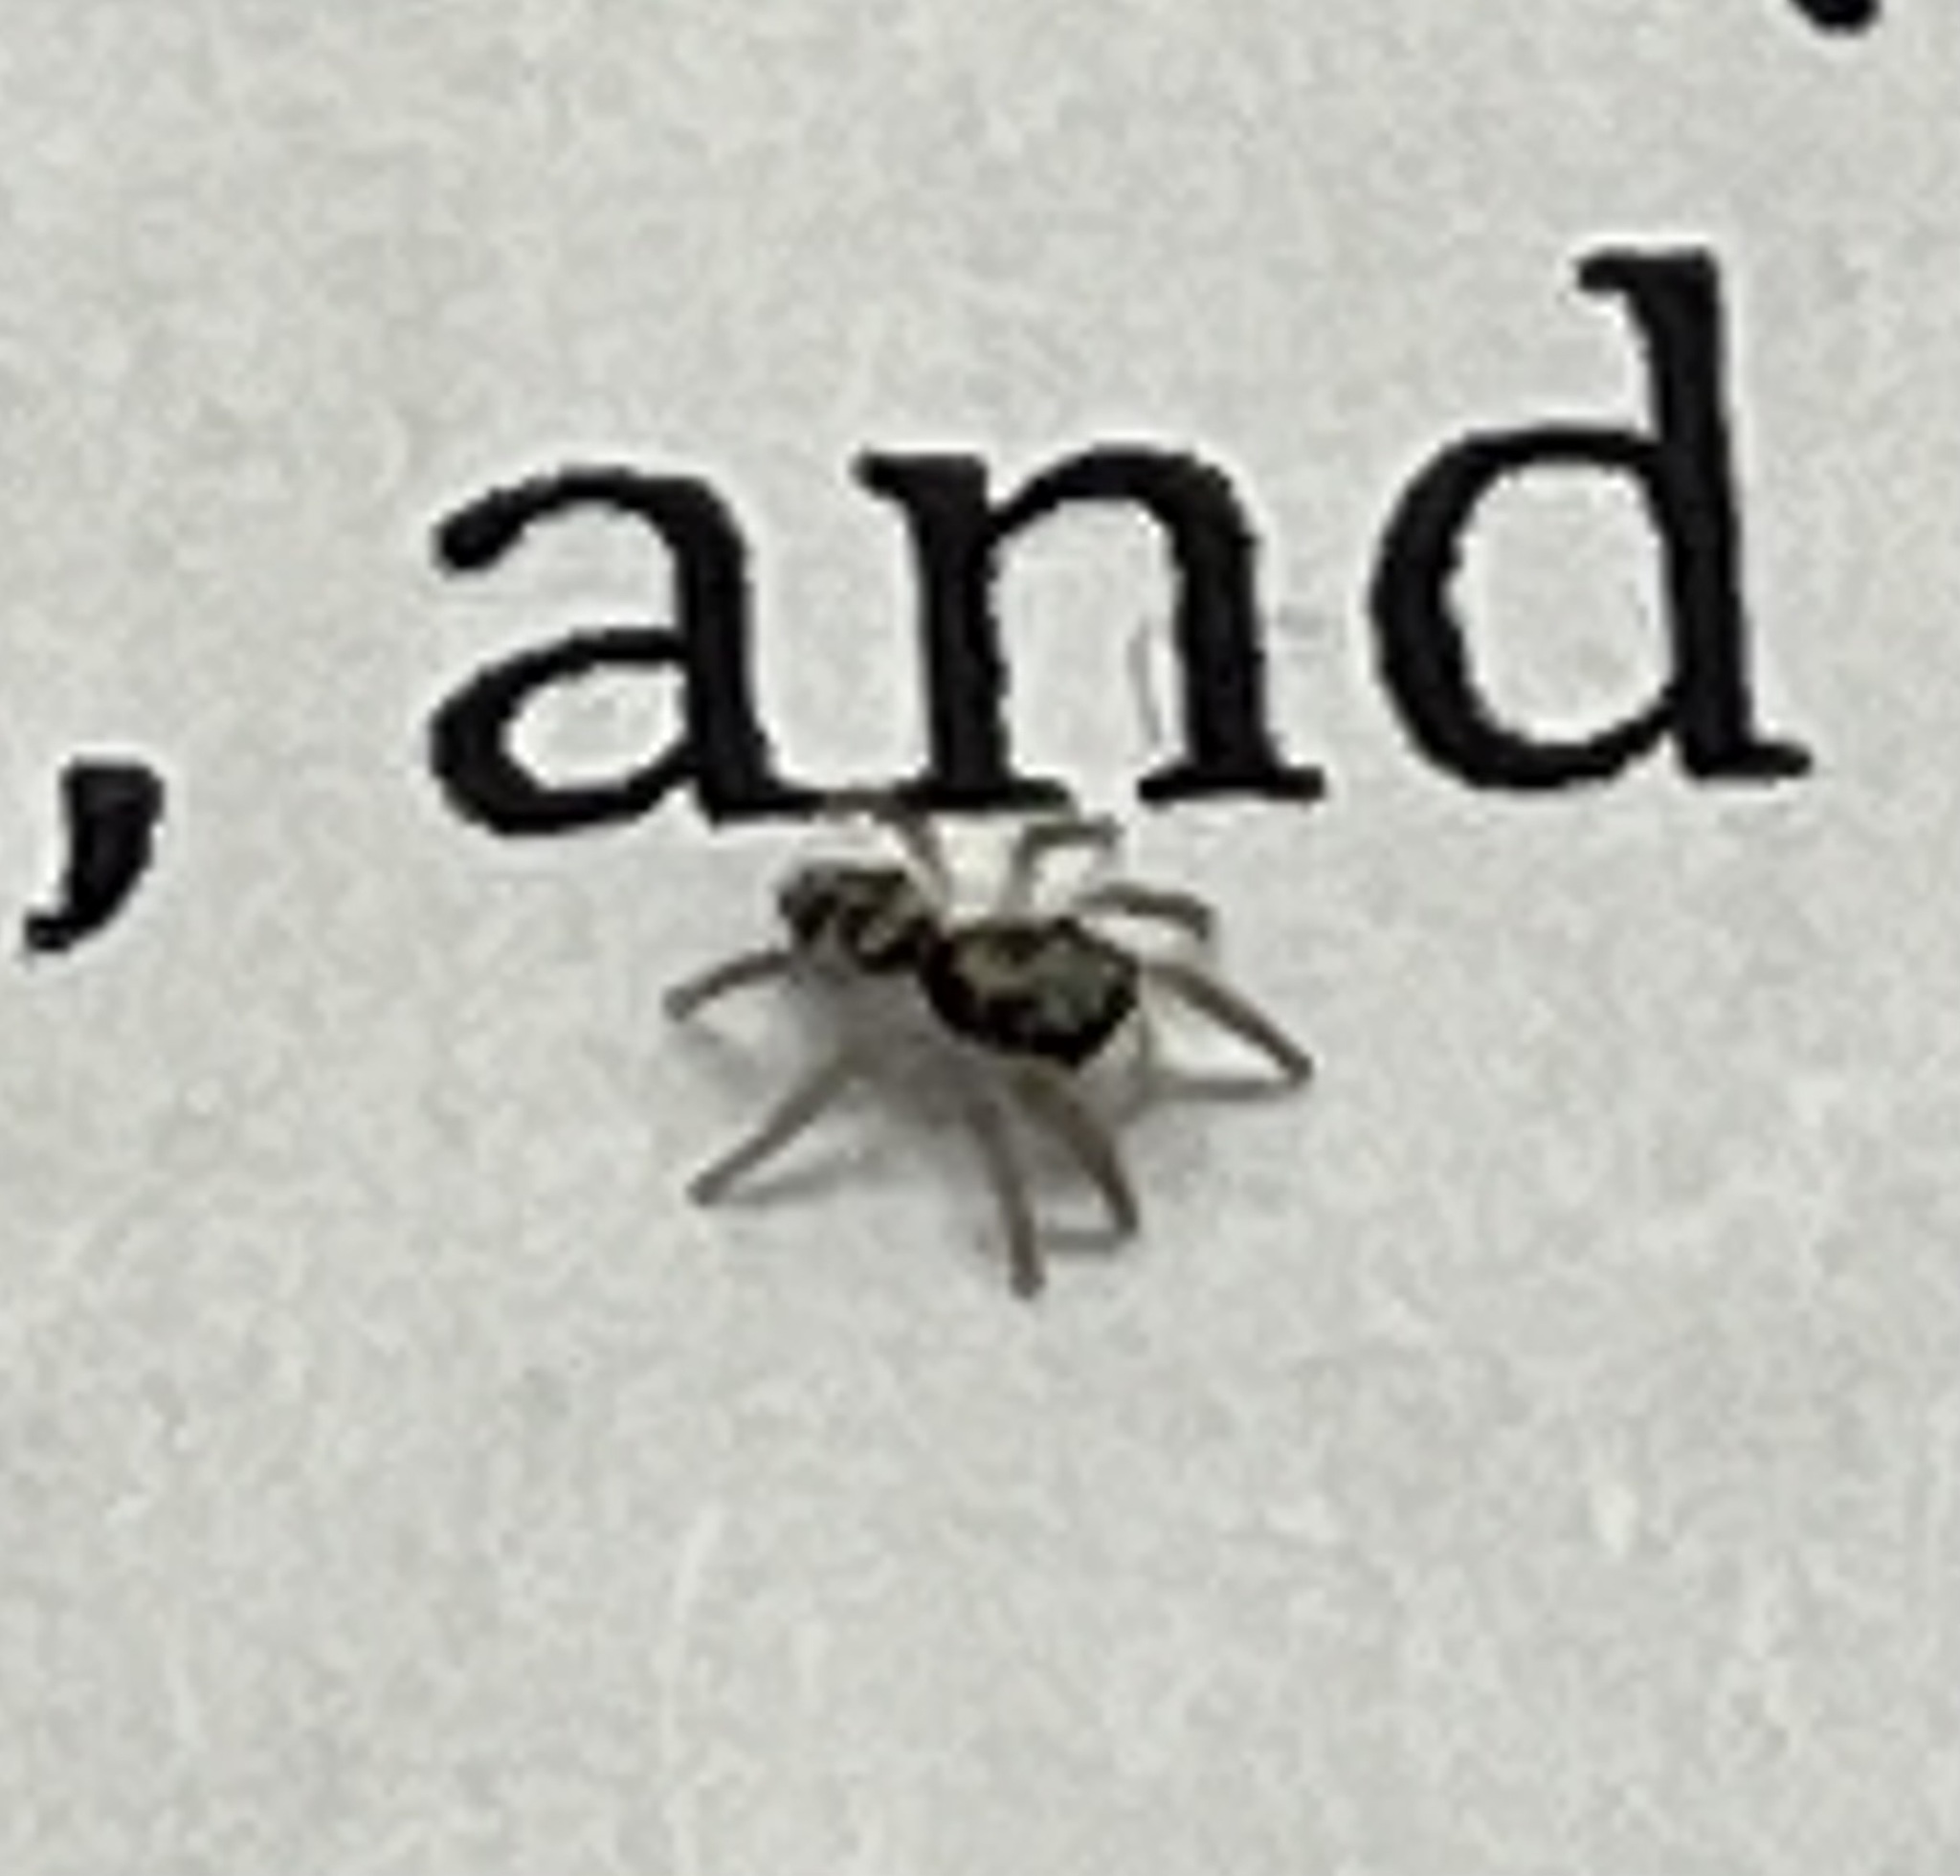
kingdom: Animalia
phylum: Arthropoda
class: Arachnida
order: Araneae
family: Salticidae
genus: Salticus
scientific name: Salticus scenicus
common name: Zebra jumper
